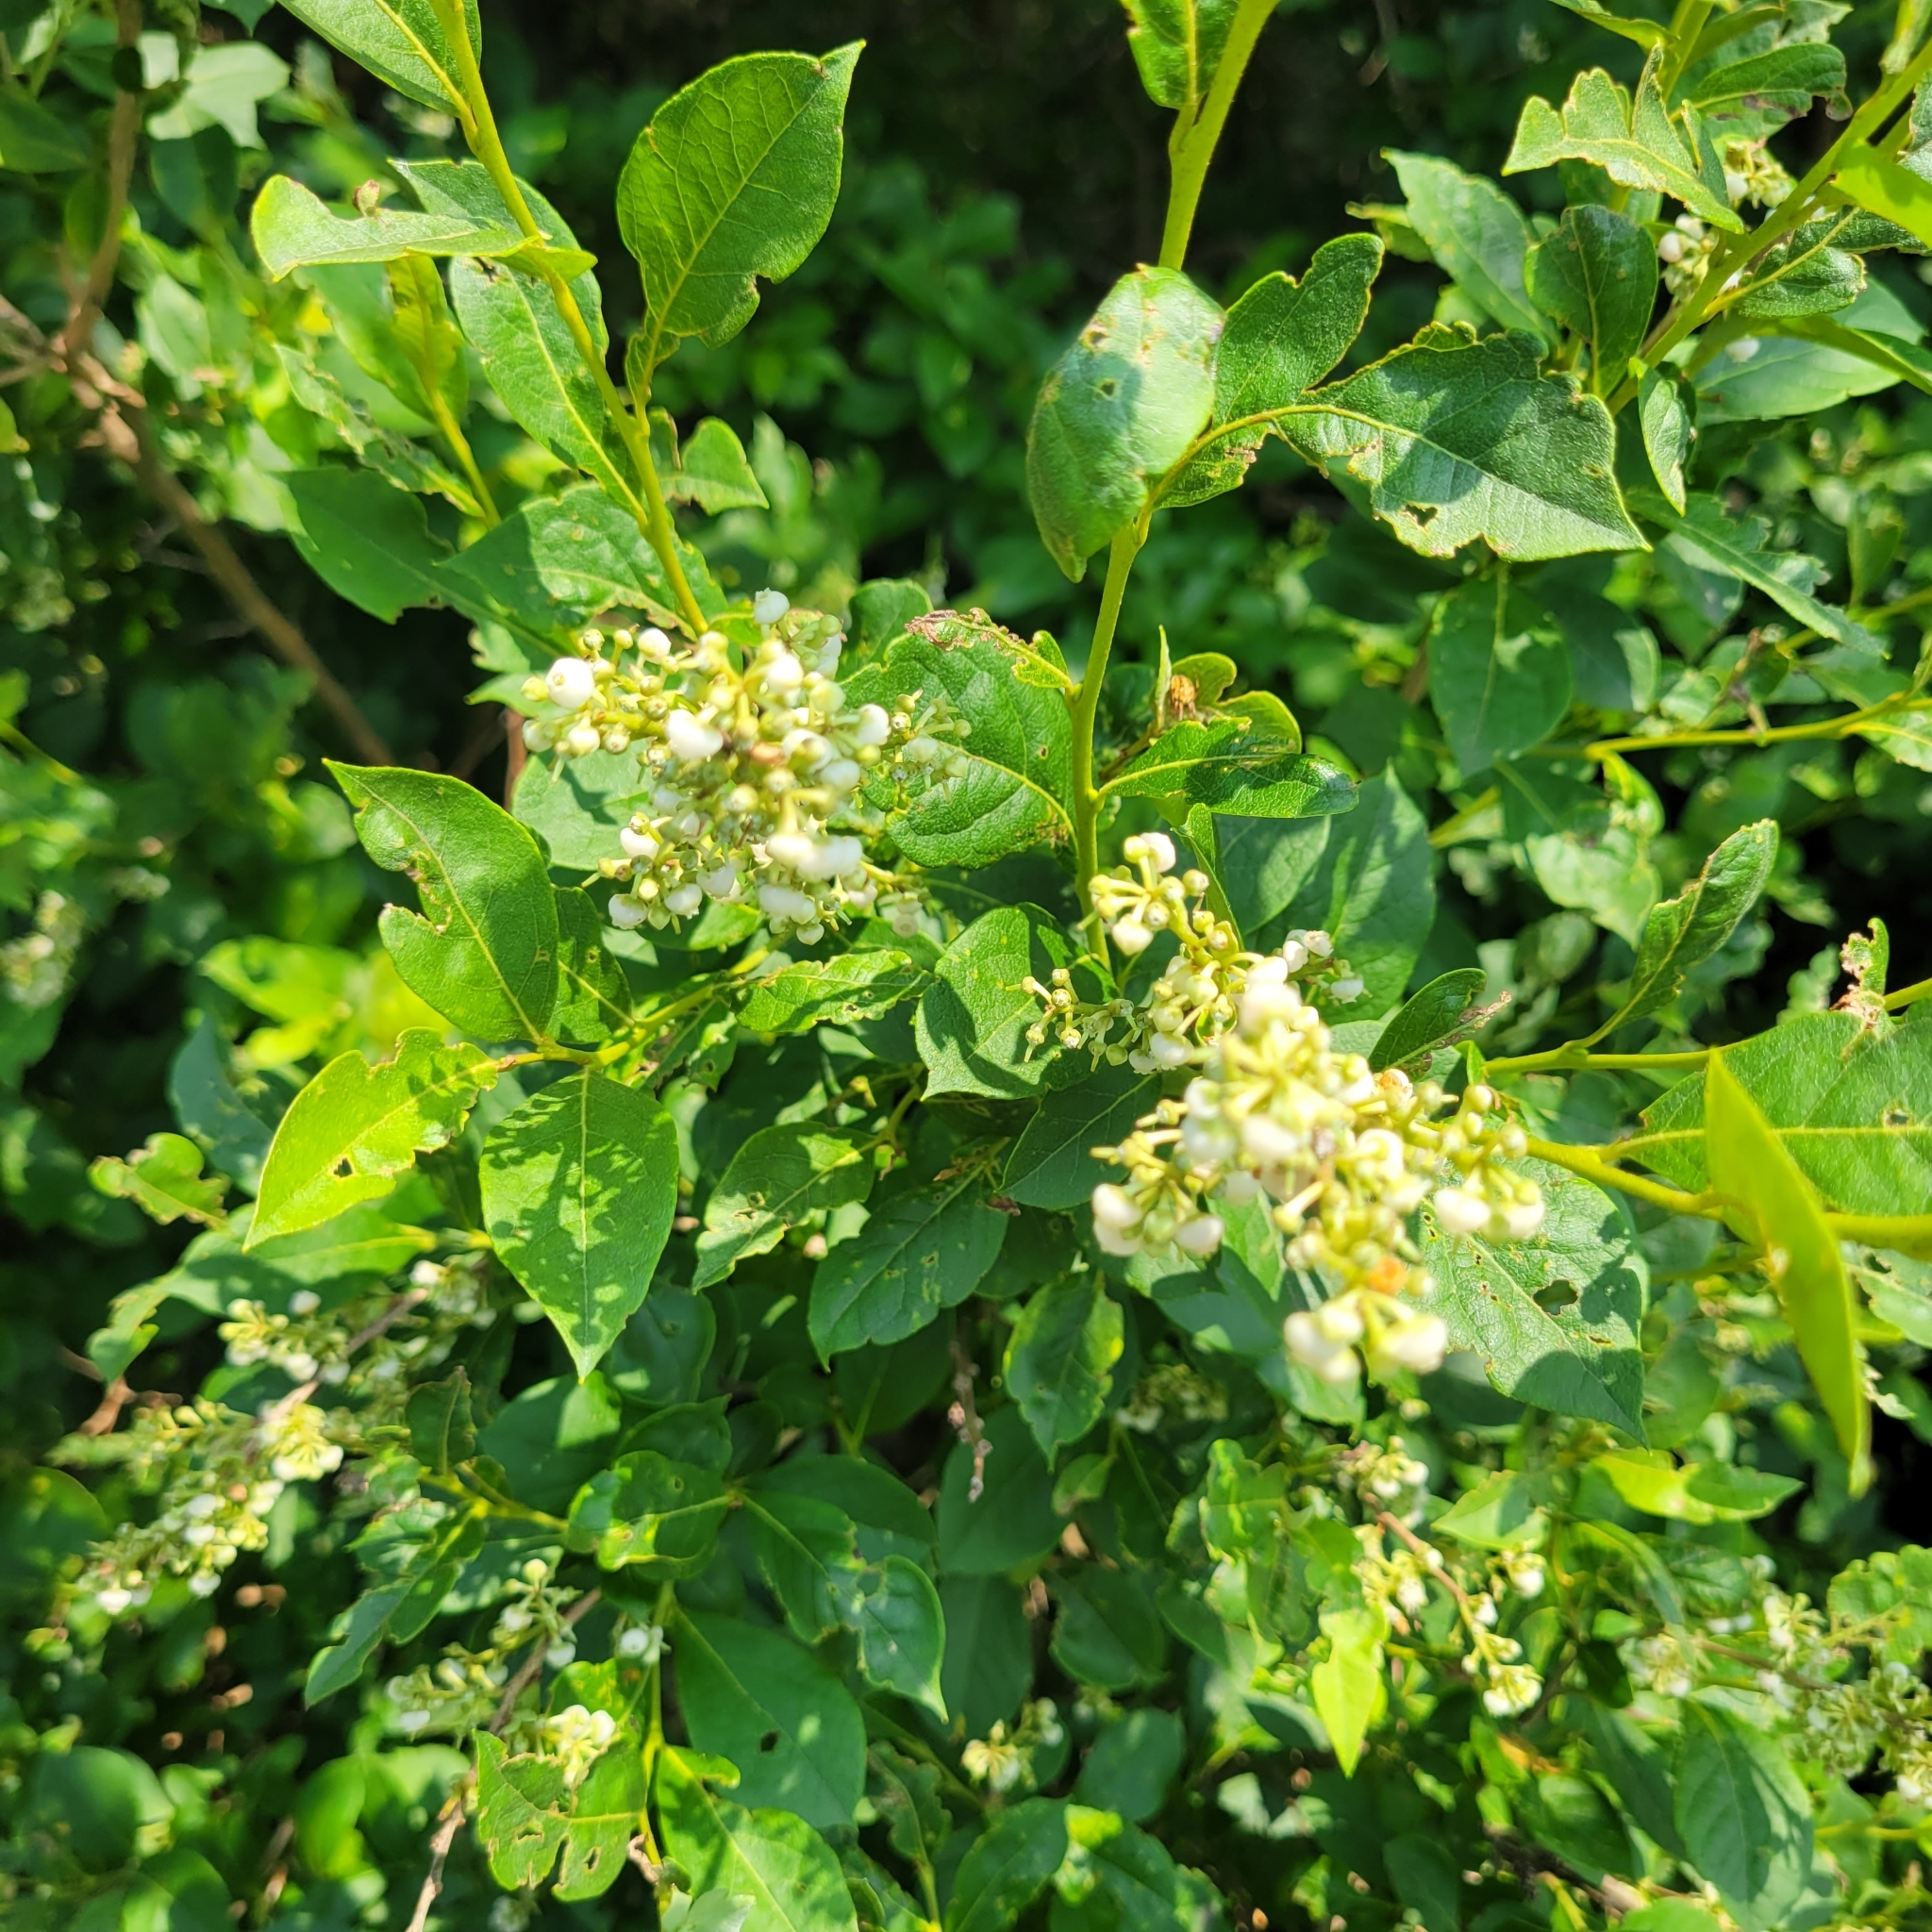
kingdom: Plantae
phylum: Tracheophyta
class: Magnoliopsida
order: Ericales
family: Ericaceae
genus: Lyonia
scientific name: Lyonia ligustrina
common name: Maleberry
